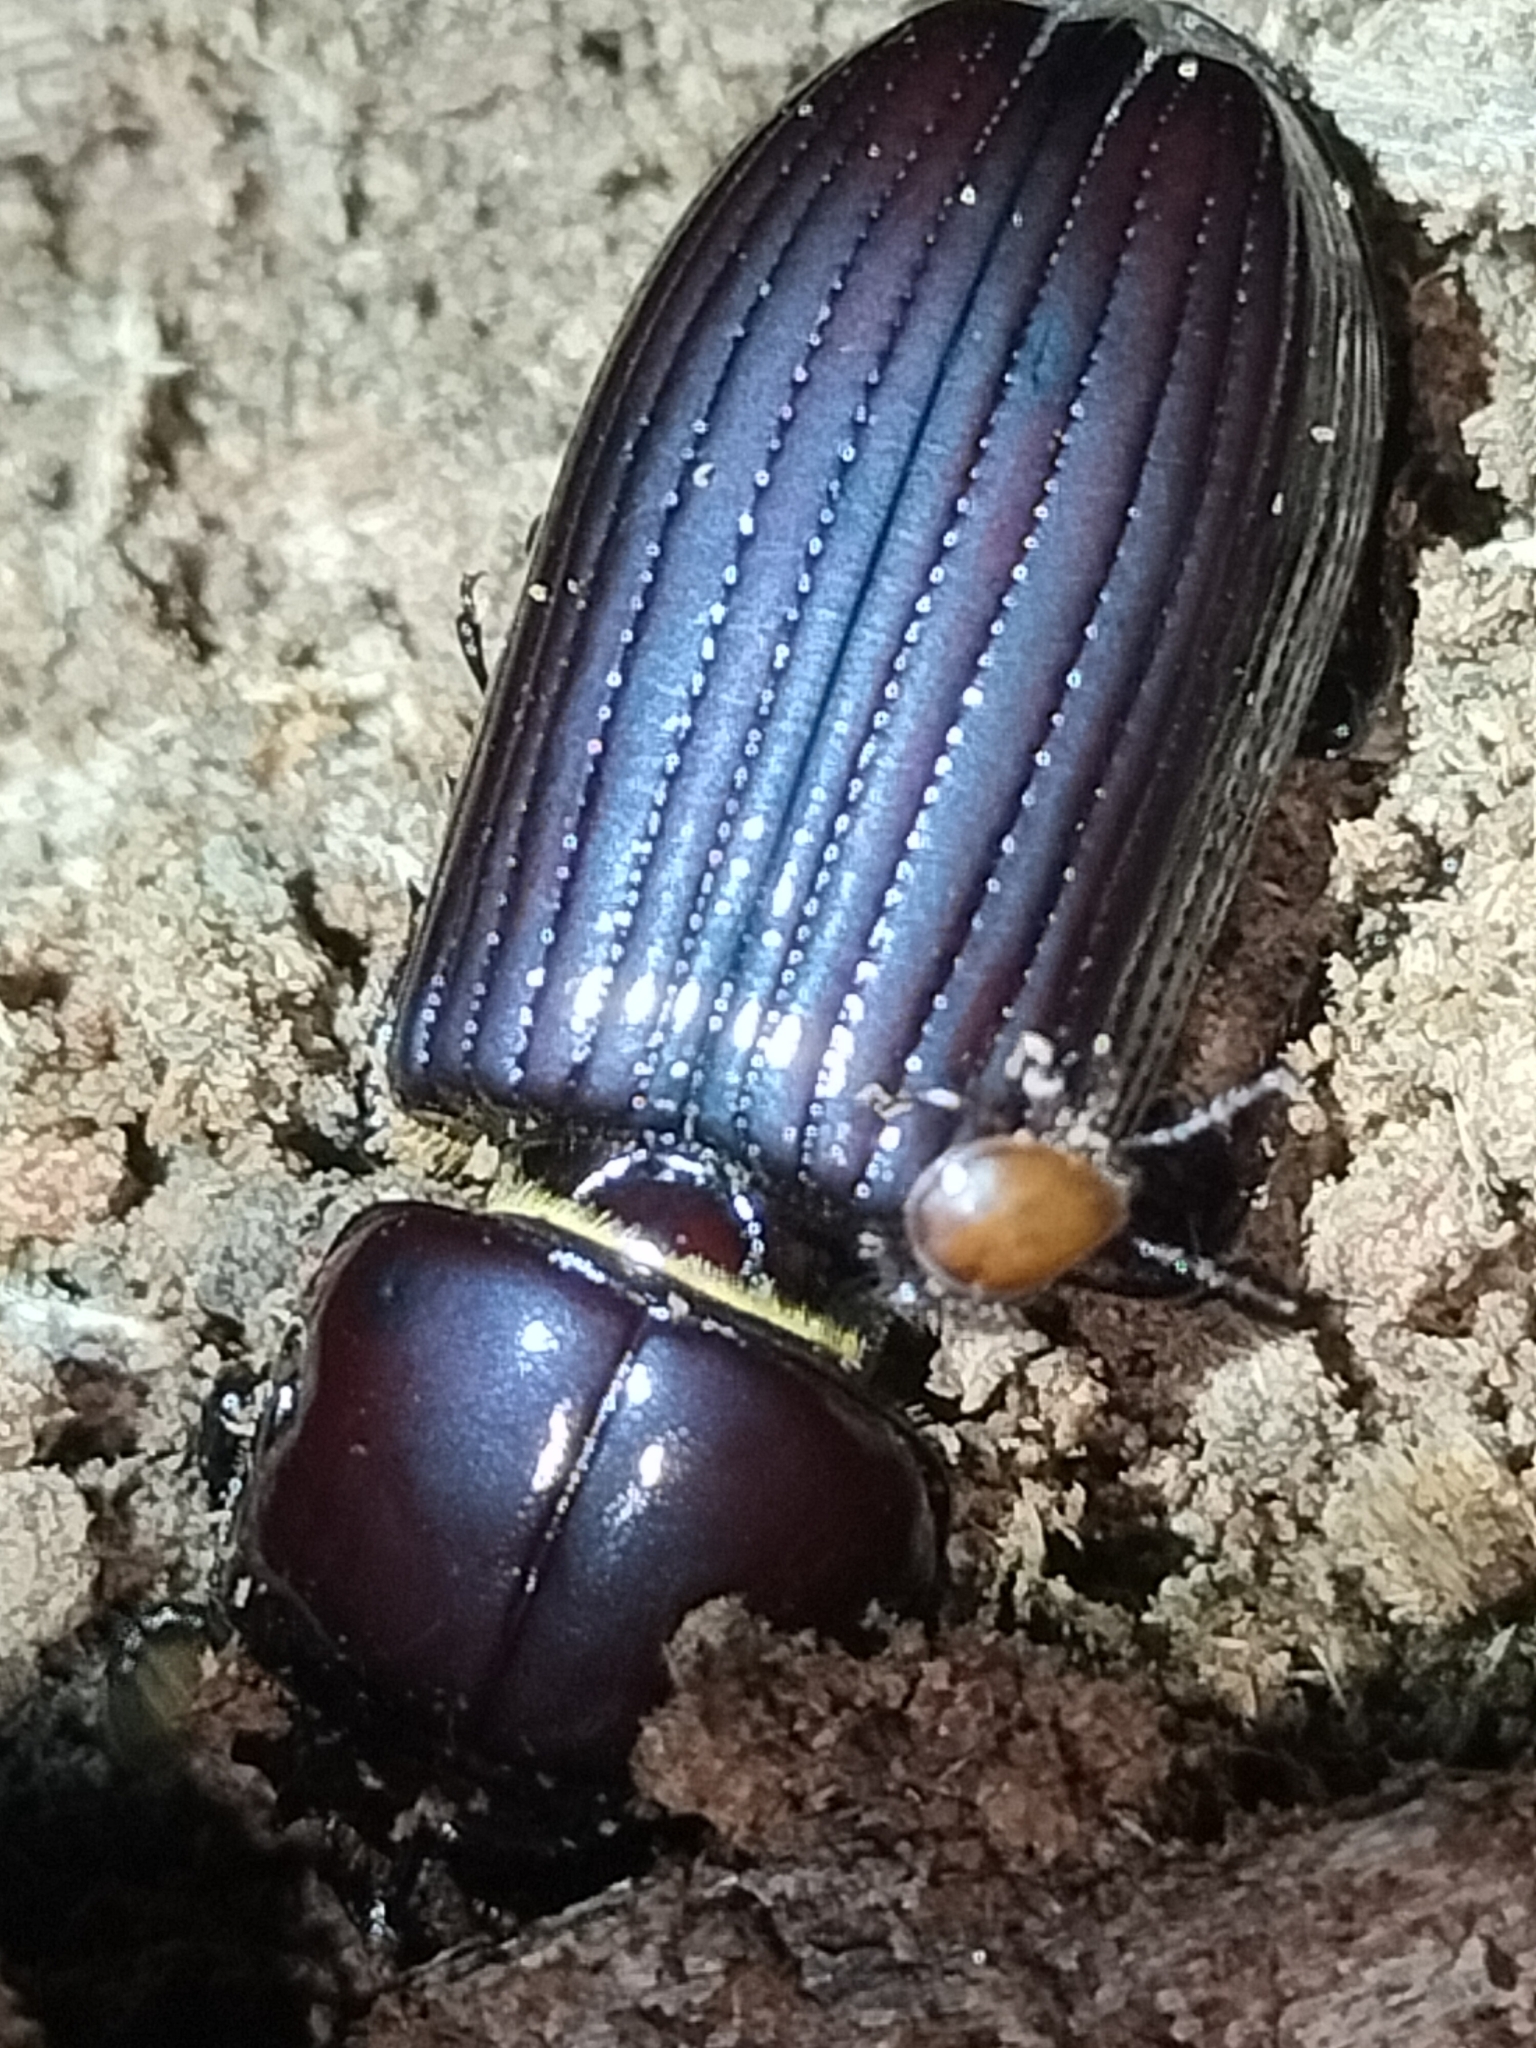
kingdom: Animalia
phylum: Arthropoda
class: Insecta
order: Coleoptera
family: Passalidae
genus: Mastachilus
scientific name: Mastachilus australasicus
